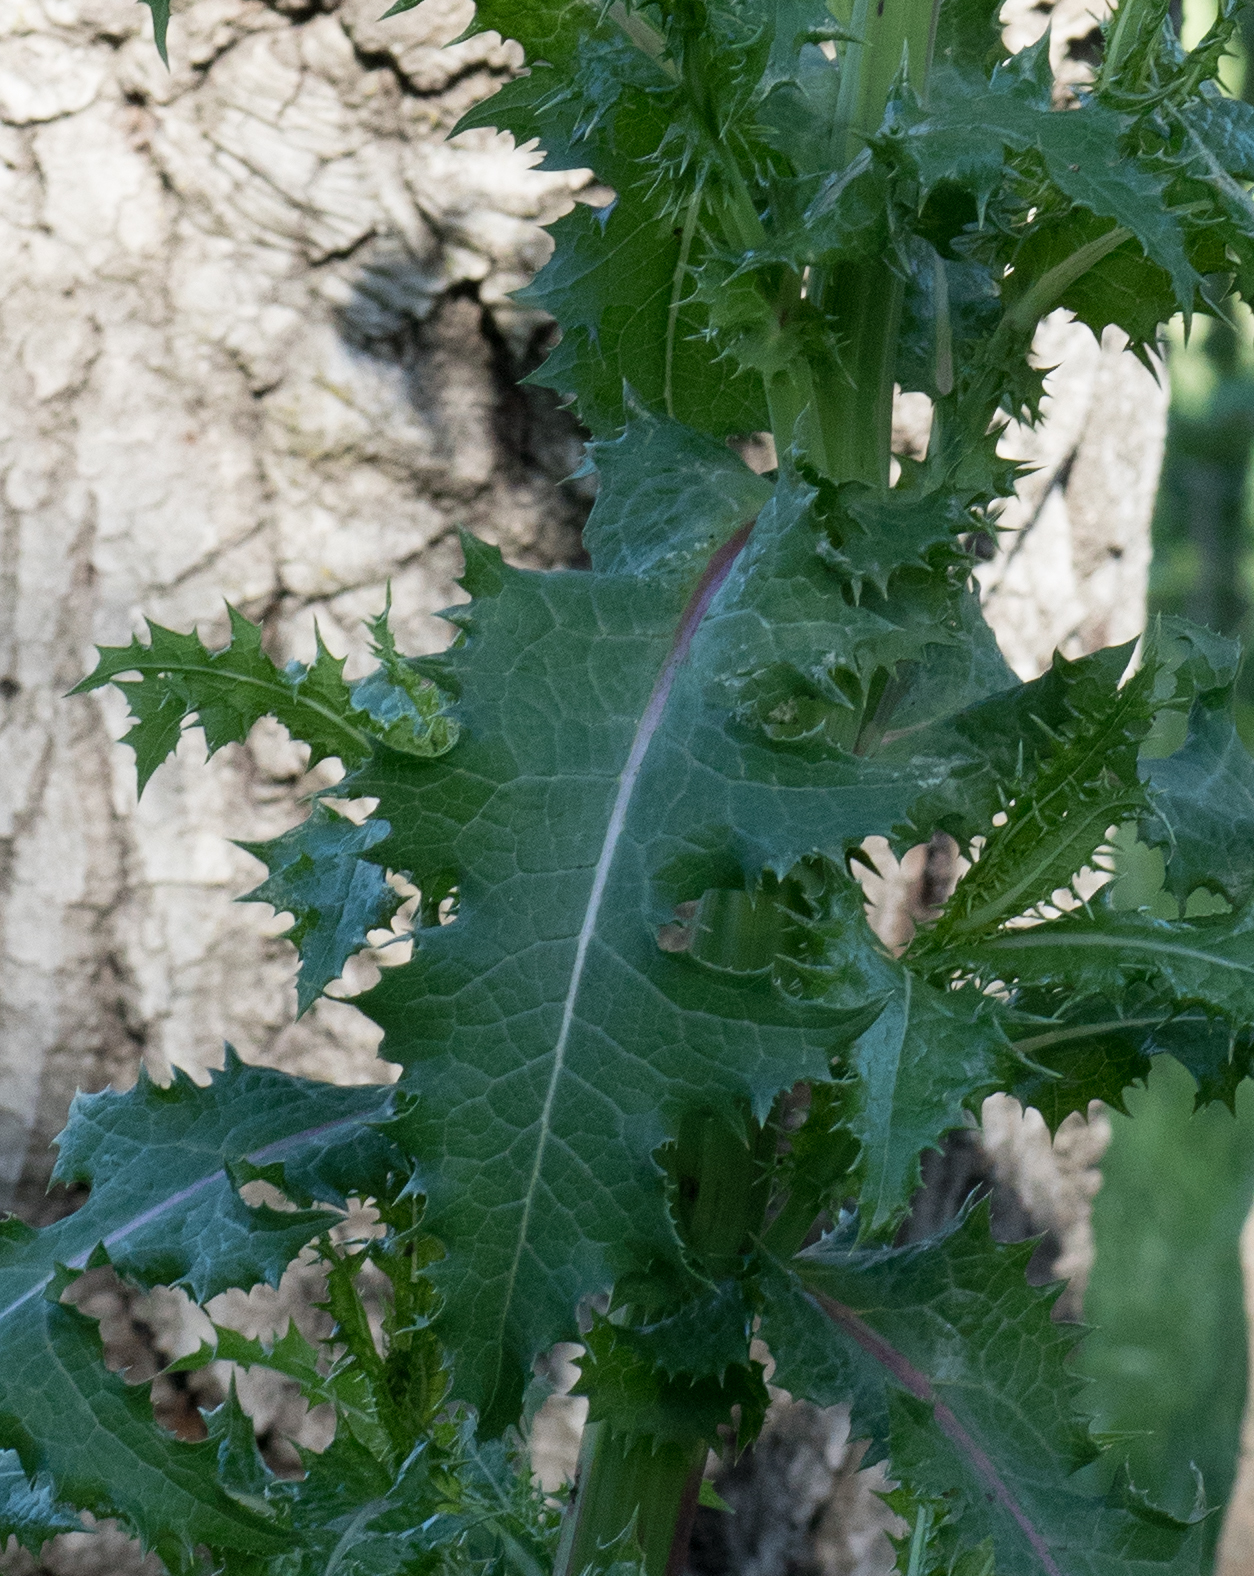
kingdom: Plantae
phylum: Tracheophyta
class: Magnoliopsida
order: Asterales
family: Asteraceae
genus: Sonchus
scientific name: Sonchus asper
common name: Prickly sow-thistle
